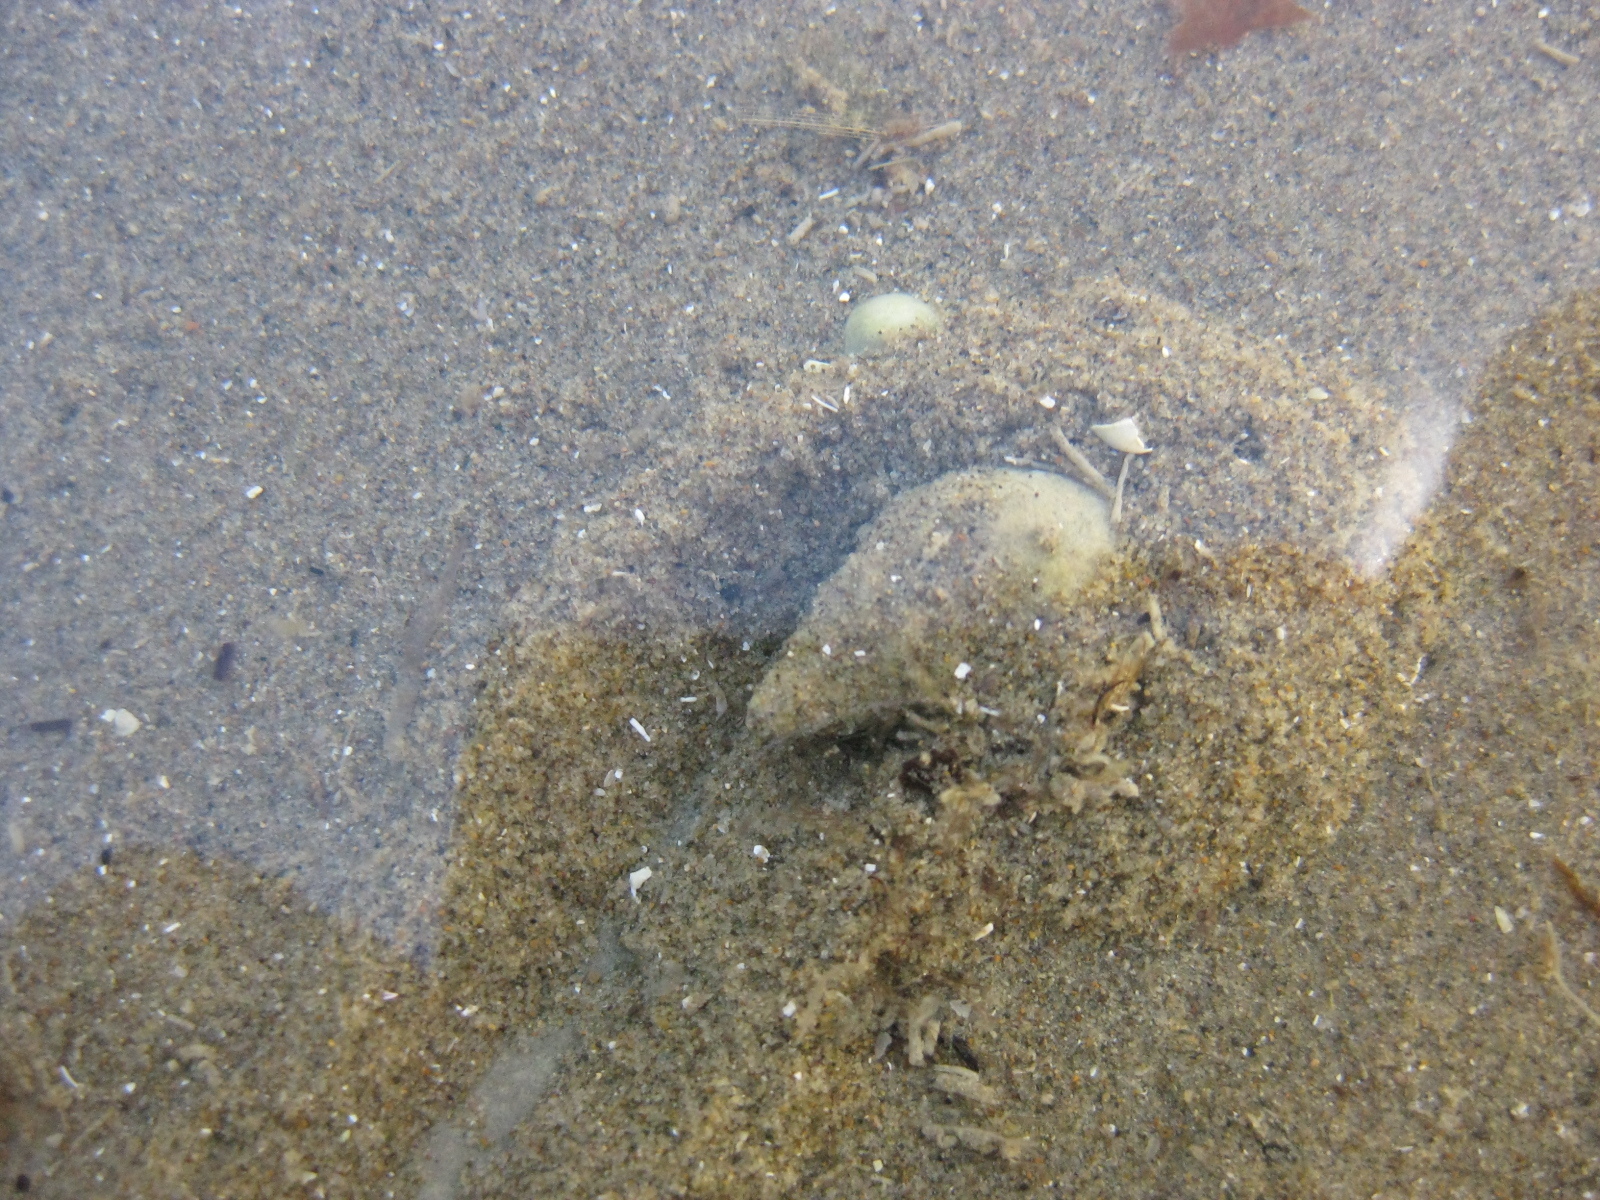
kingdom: Animalia
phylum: Mollusca
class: Gastropoda
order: Neogastropoda
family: Cominellidae
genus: Cominella
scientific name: Cominella glandiformis
